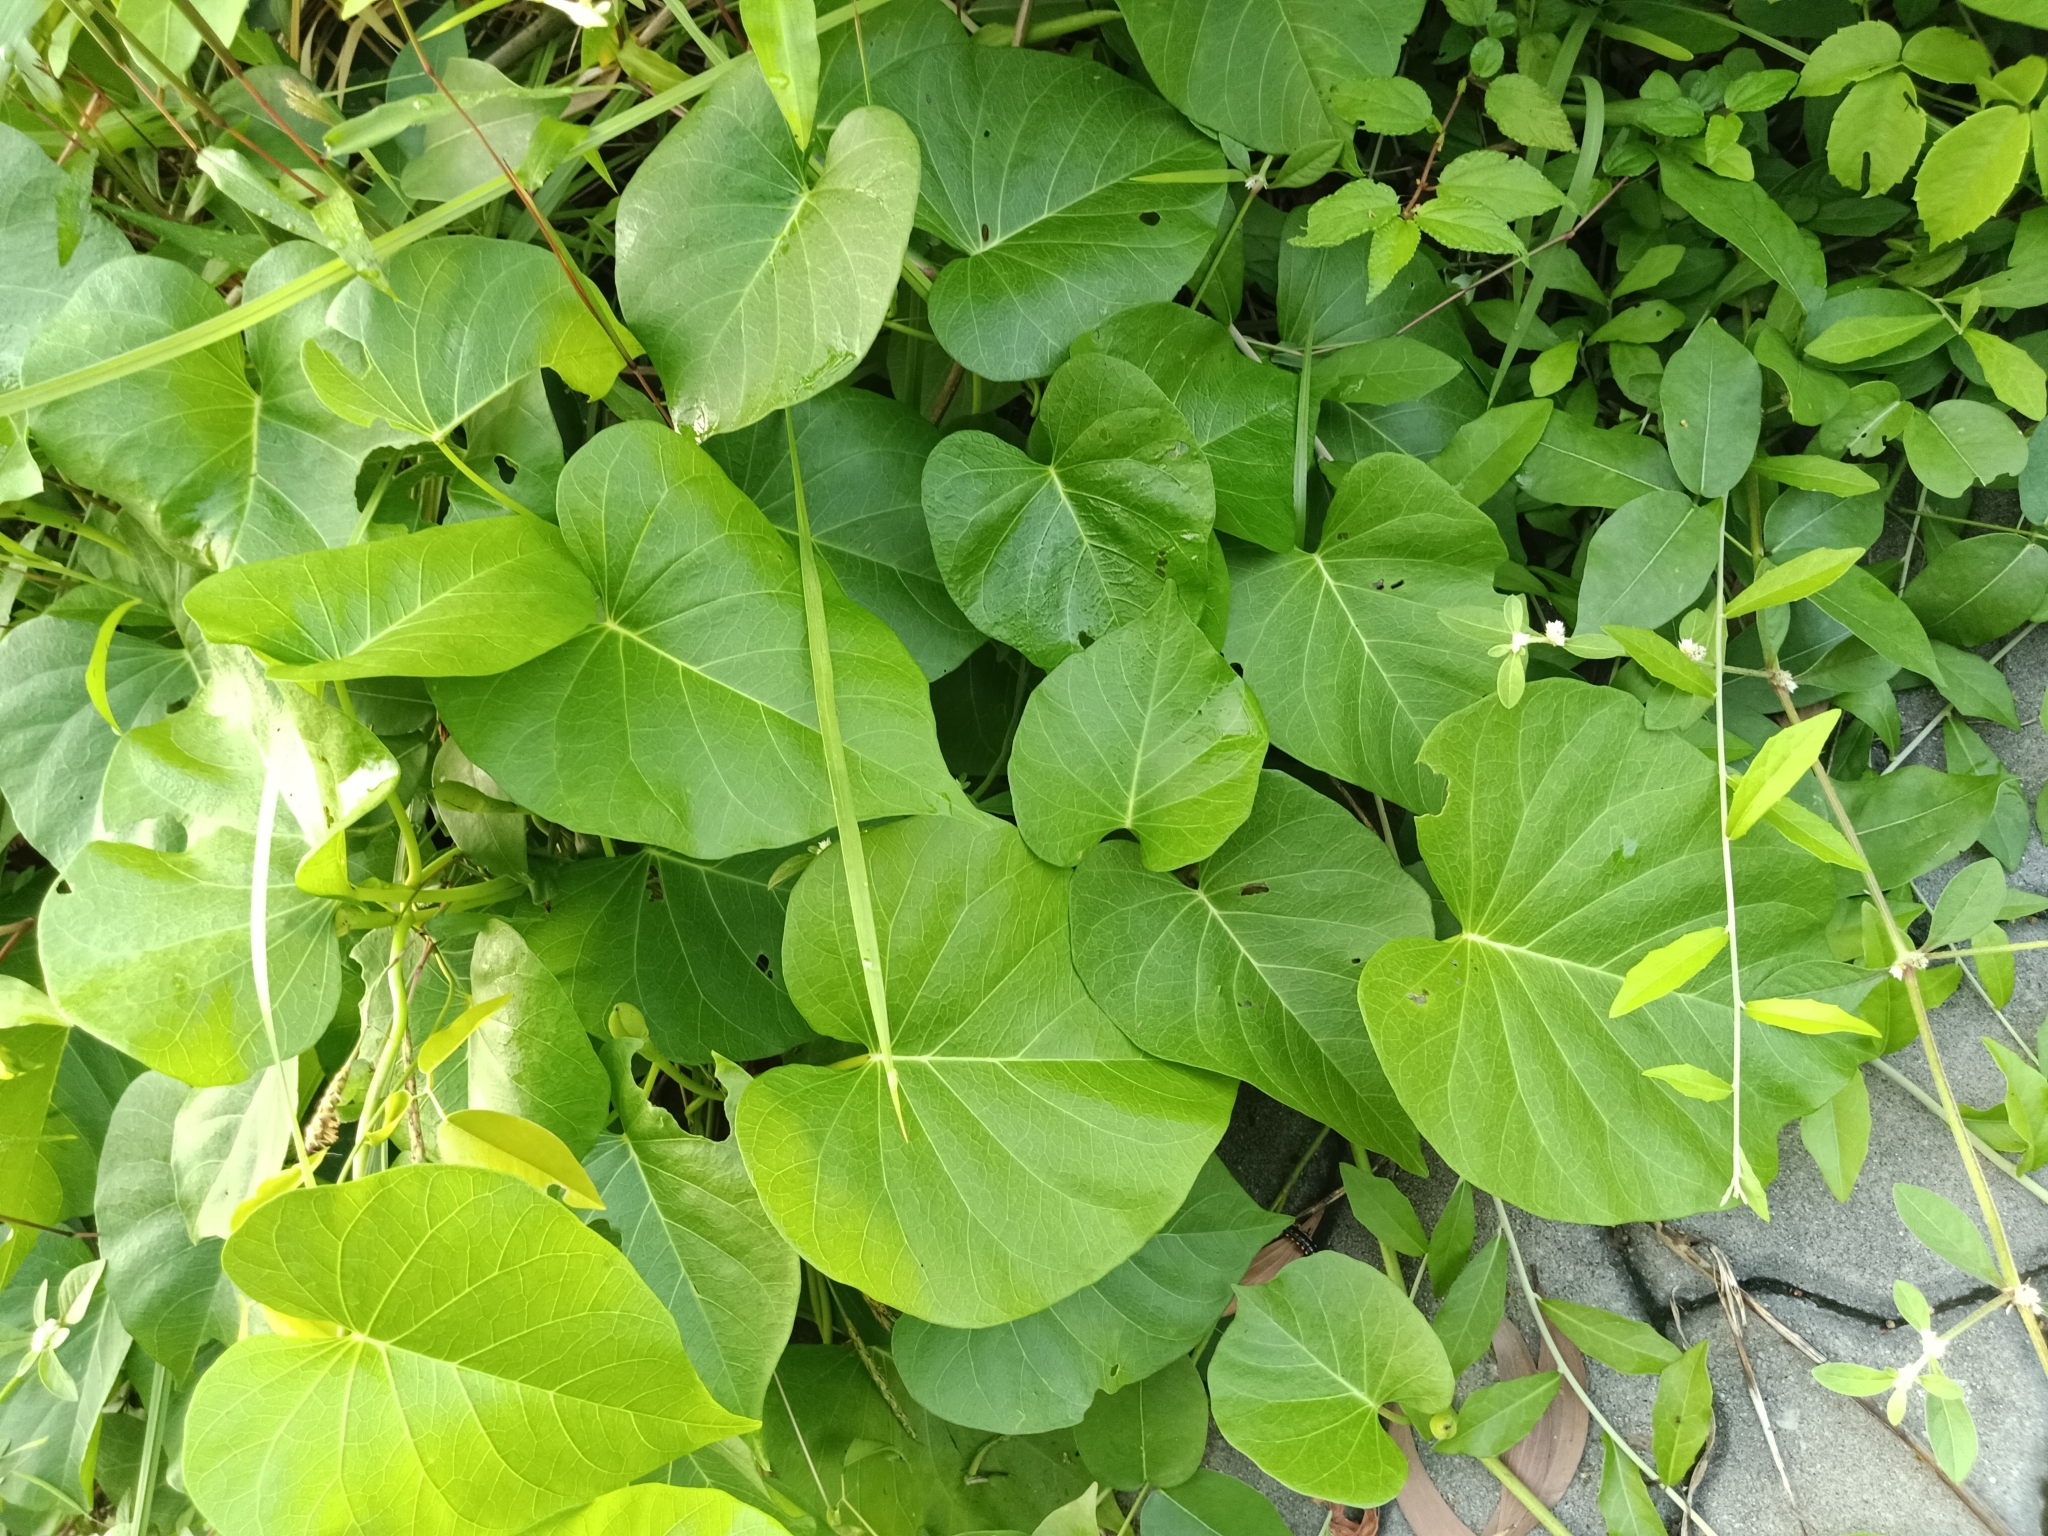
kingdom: Plantae
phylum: Tracheophyta
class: Magnoliopsida
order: Solanales
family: Convolvulaceae
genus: Ipomoea
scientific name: Ipomoea violacea
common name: Beach moonflower
